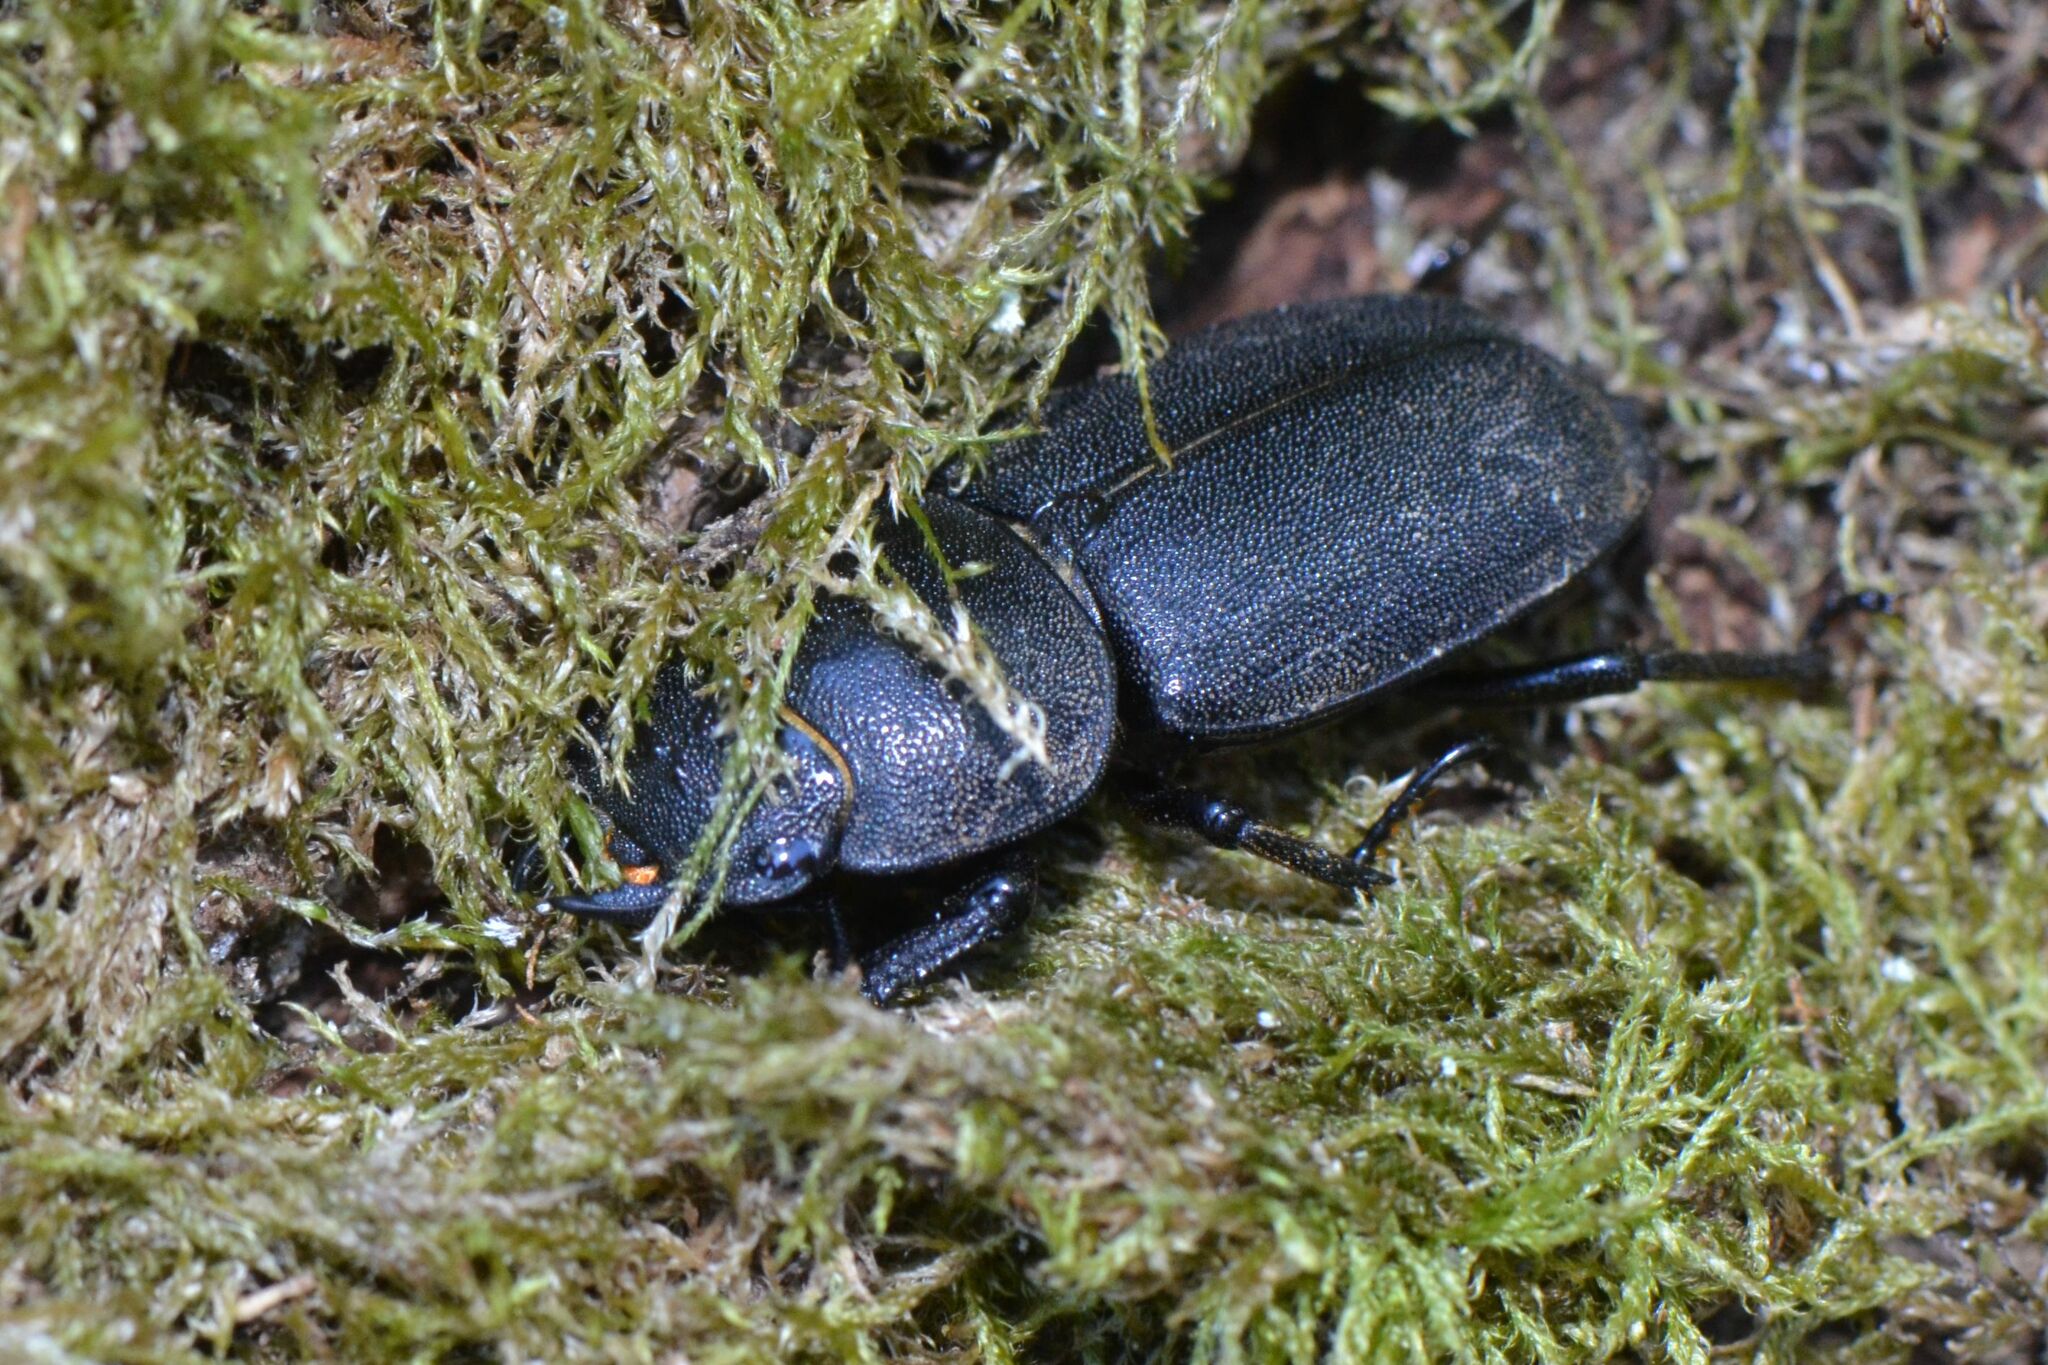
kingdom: Animalia
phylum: Arthropoda
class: Insecta
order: Coleoptera
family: Lucanidae
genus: Dorcus
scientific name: Dorcus parallelipipedus
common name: Lesser stag beetle
